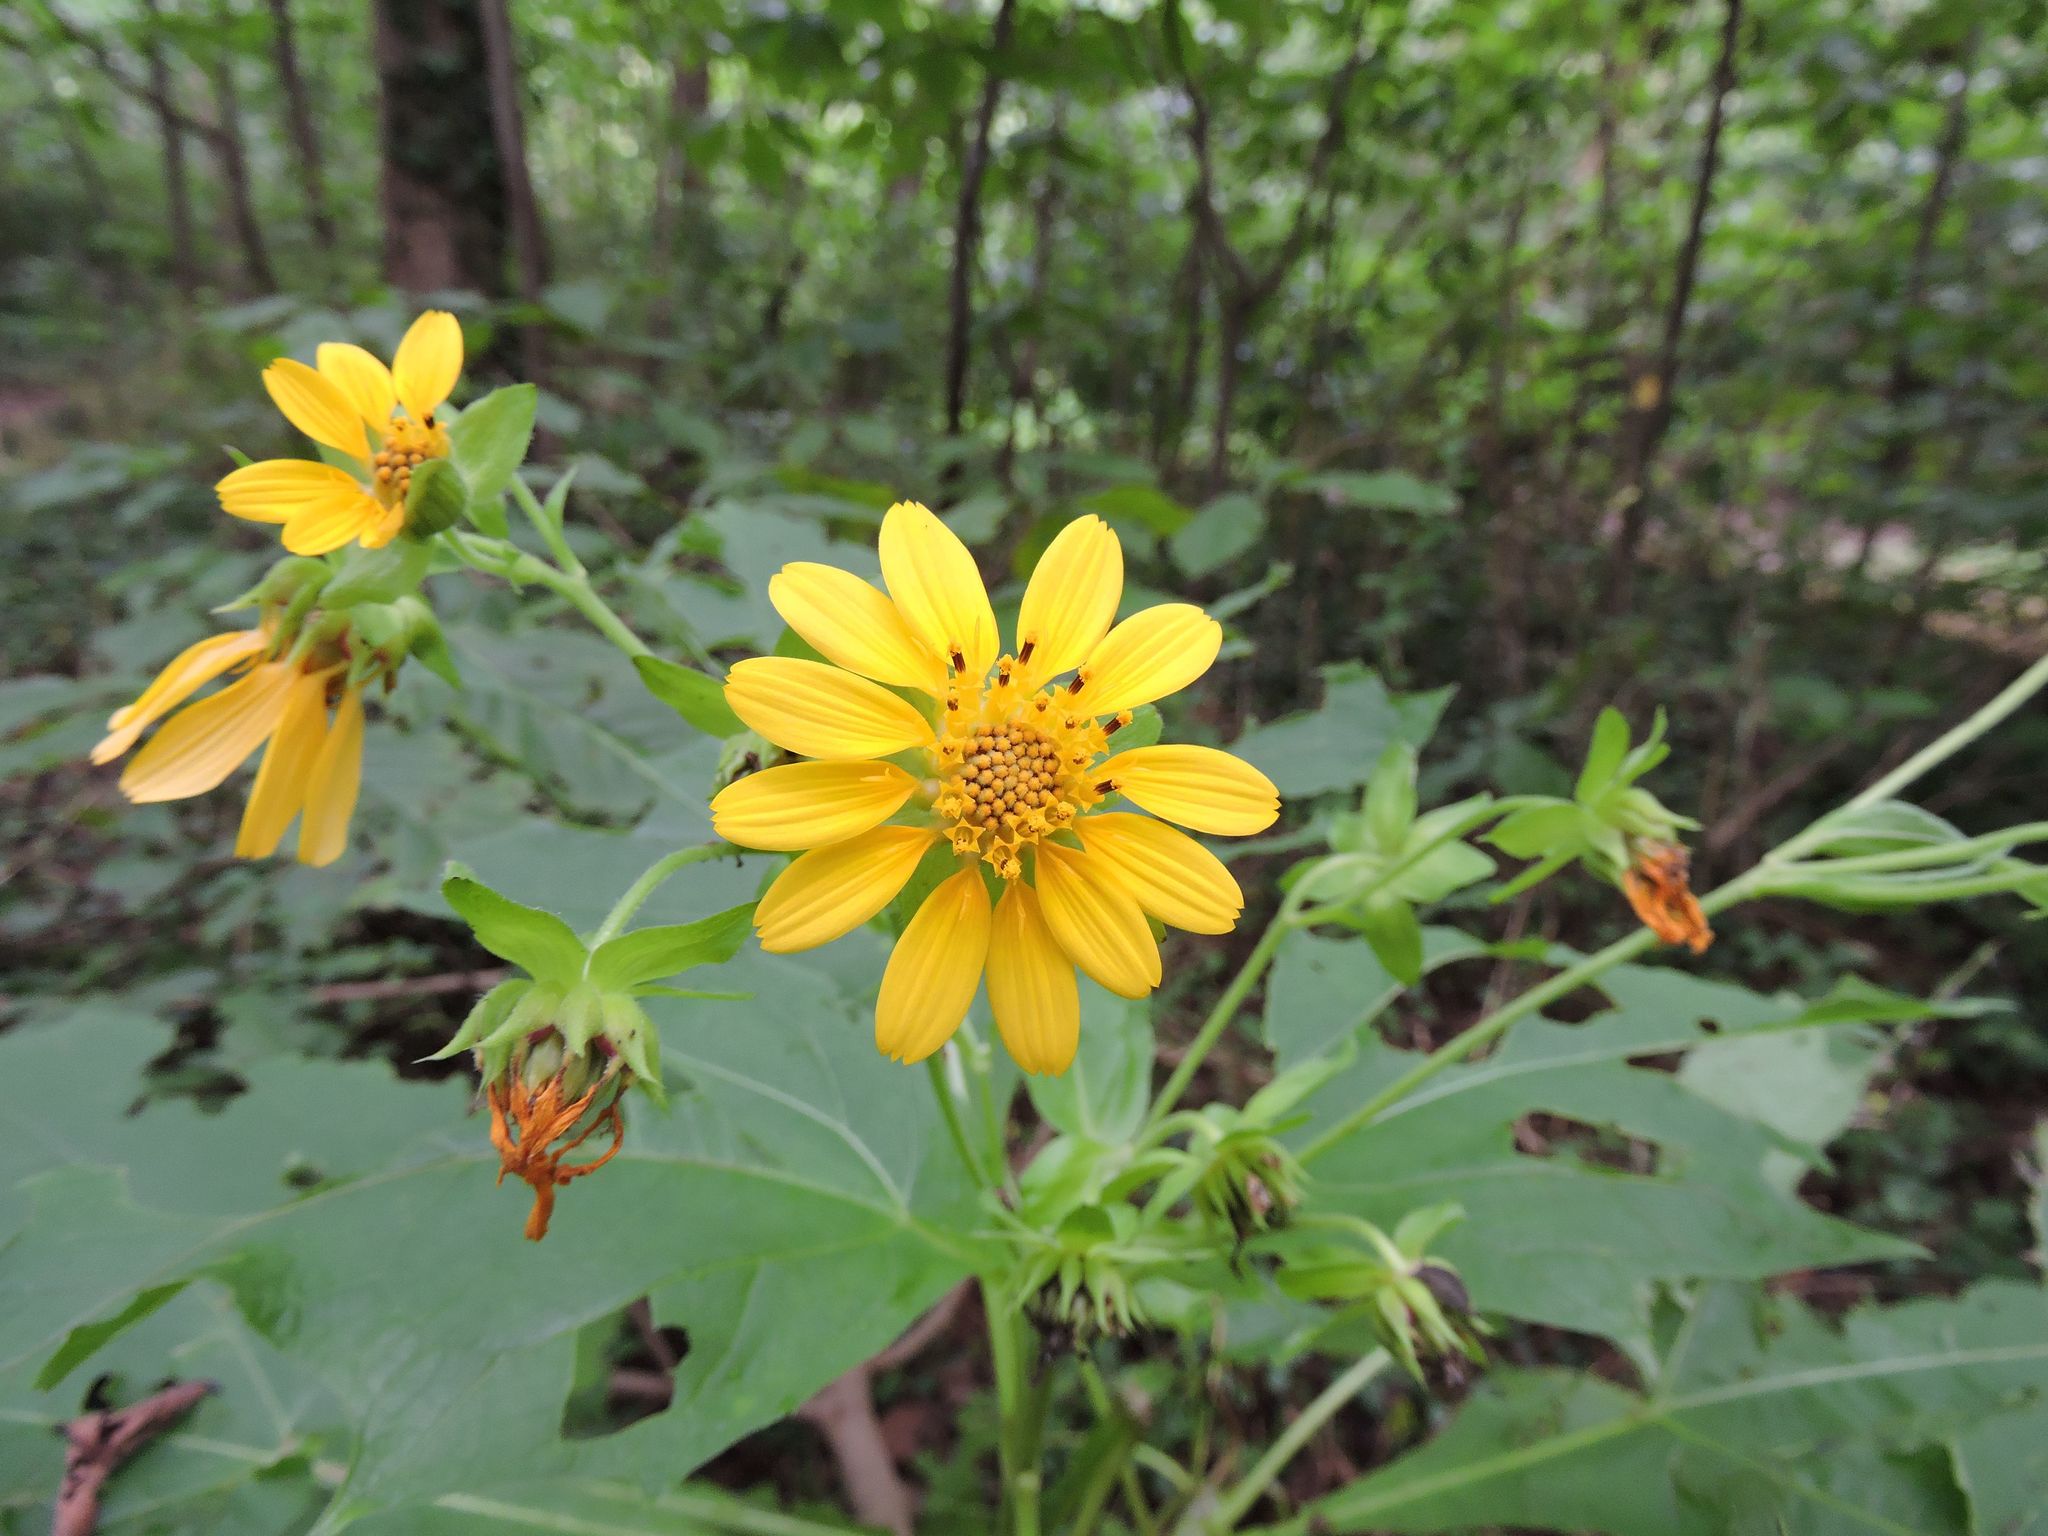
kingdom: Plantae
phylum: Tracheophyta
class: Magnoliopsida
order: Asterales
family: Asteraceae
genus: Smallanthus
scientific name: Smallanthus uvedalia
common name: Bear's-foot
